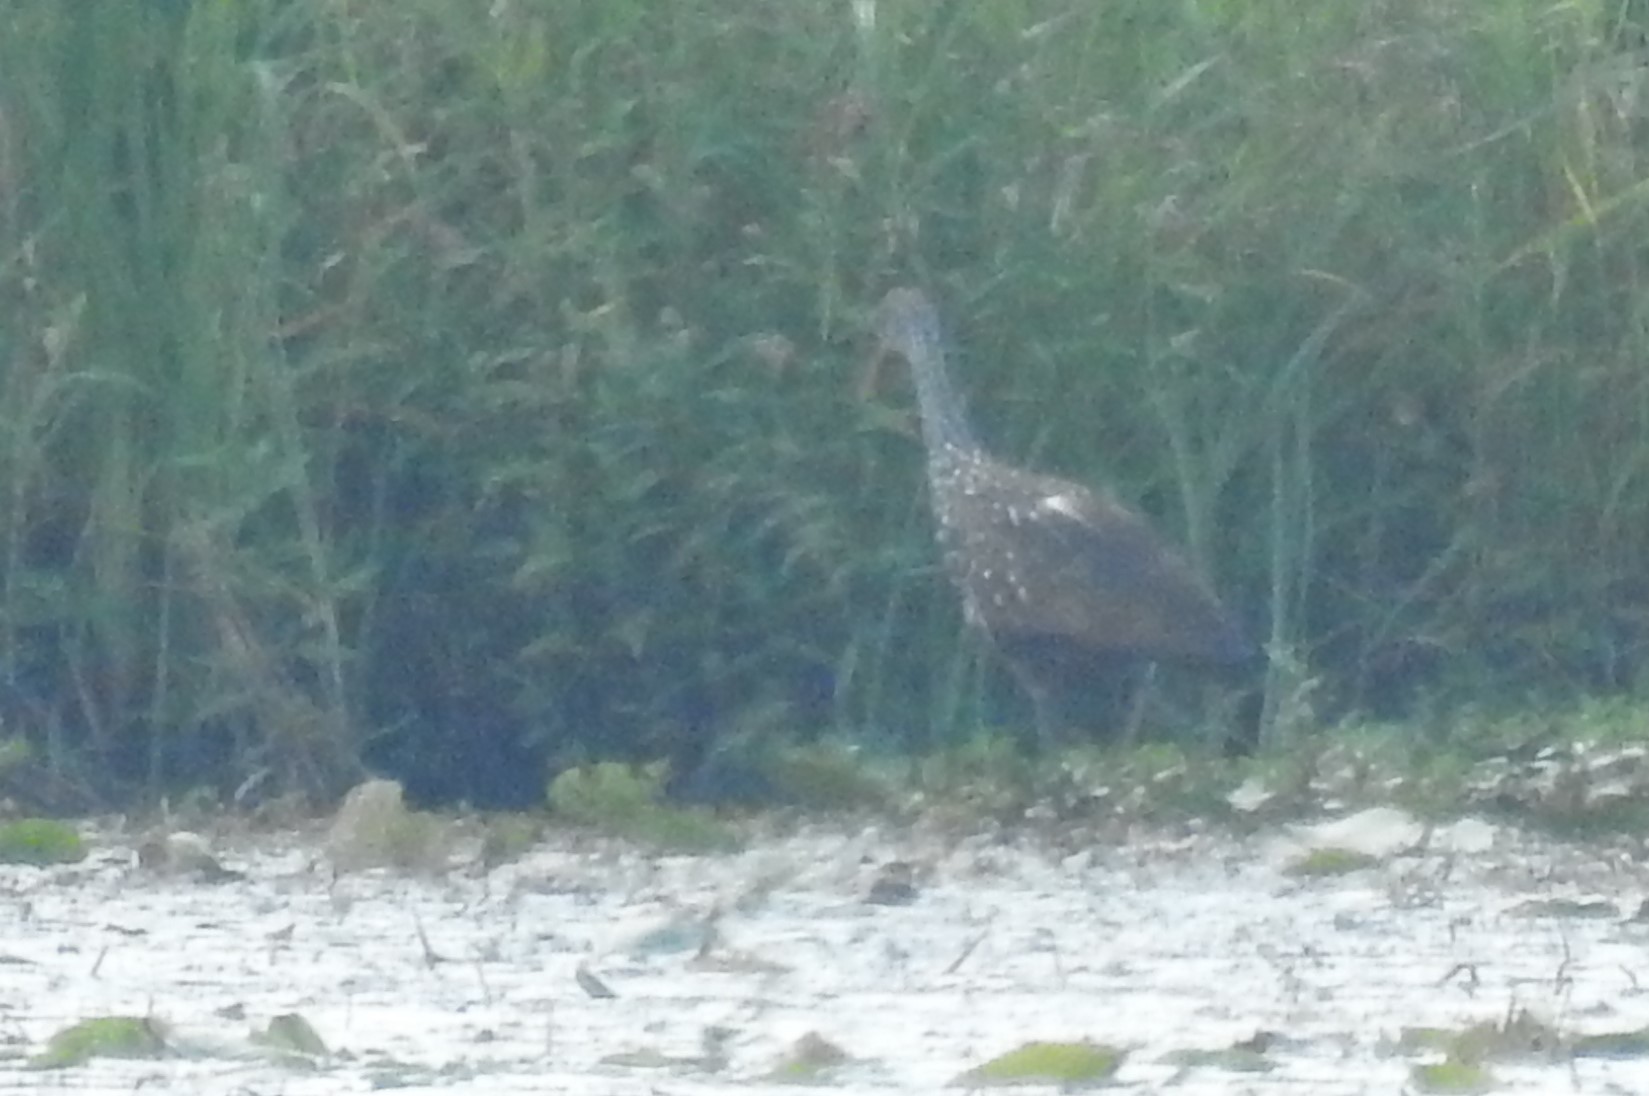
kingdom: Animalia
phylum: Chordata
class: Aves
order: Gruiformes
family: Aramidae
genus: Aramus
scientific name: Aramus guarauna
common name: Limpkin
